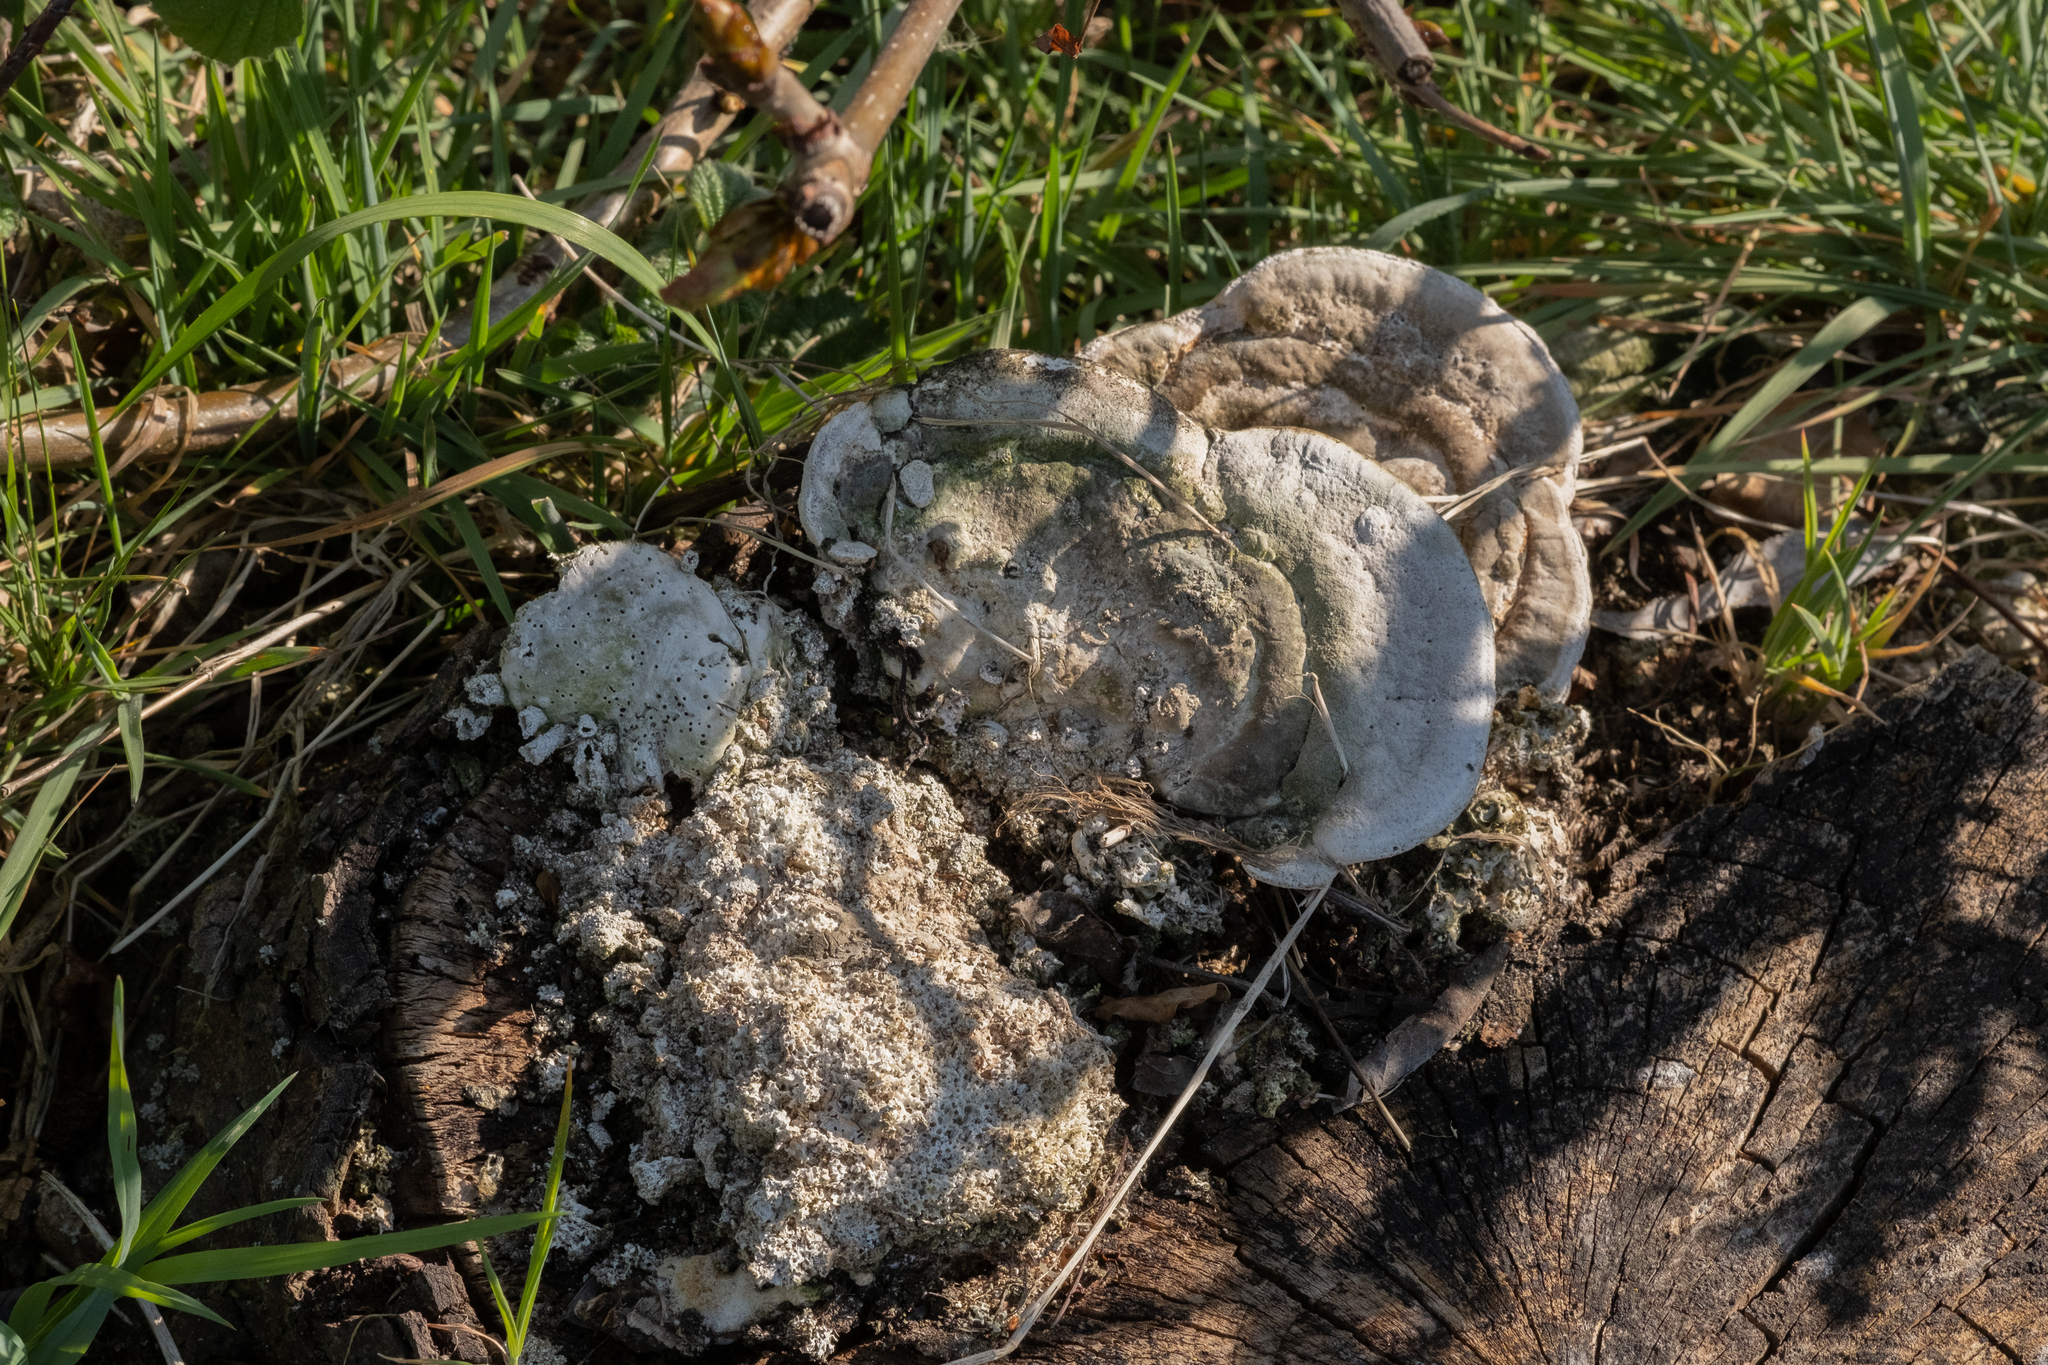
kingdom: Fungi
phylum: Basidiomycota
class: Agaricomycetes
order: Polyporales
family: Polyporaceae
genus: Trametes
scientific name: Trametes gibbosa
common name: Lumpy bracket
